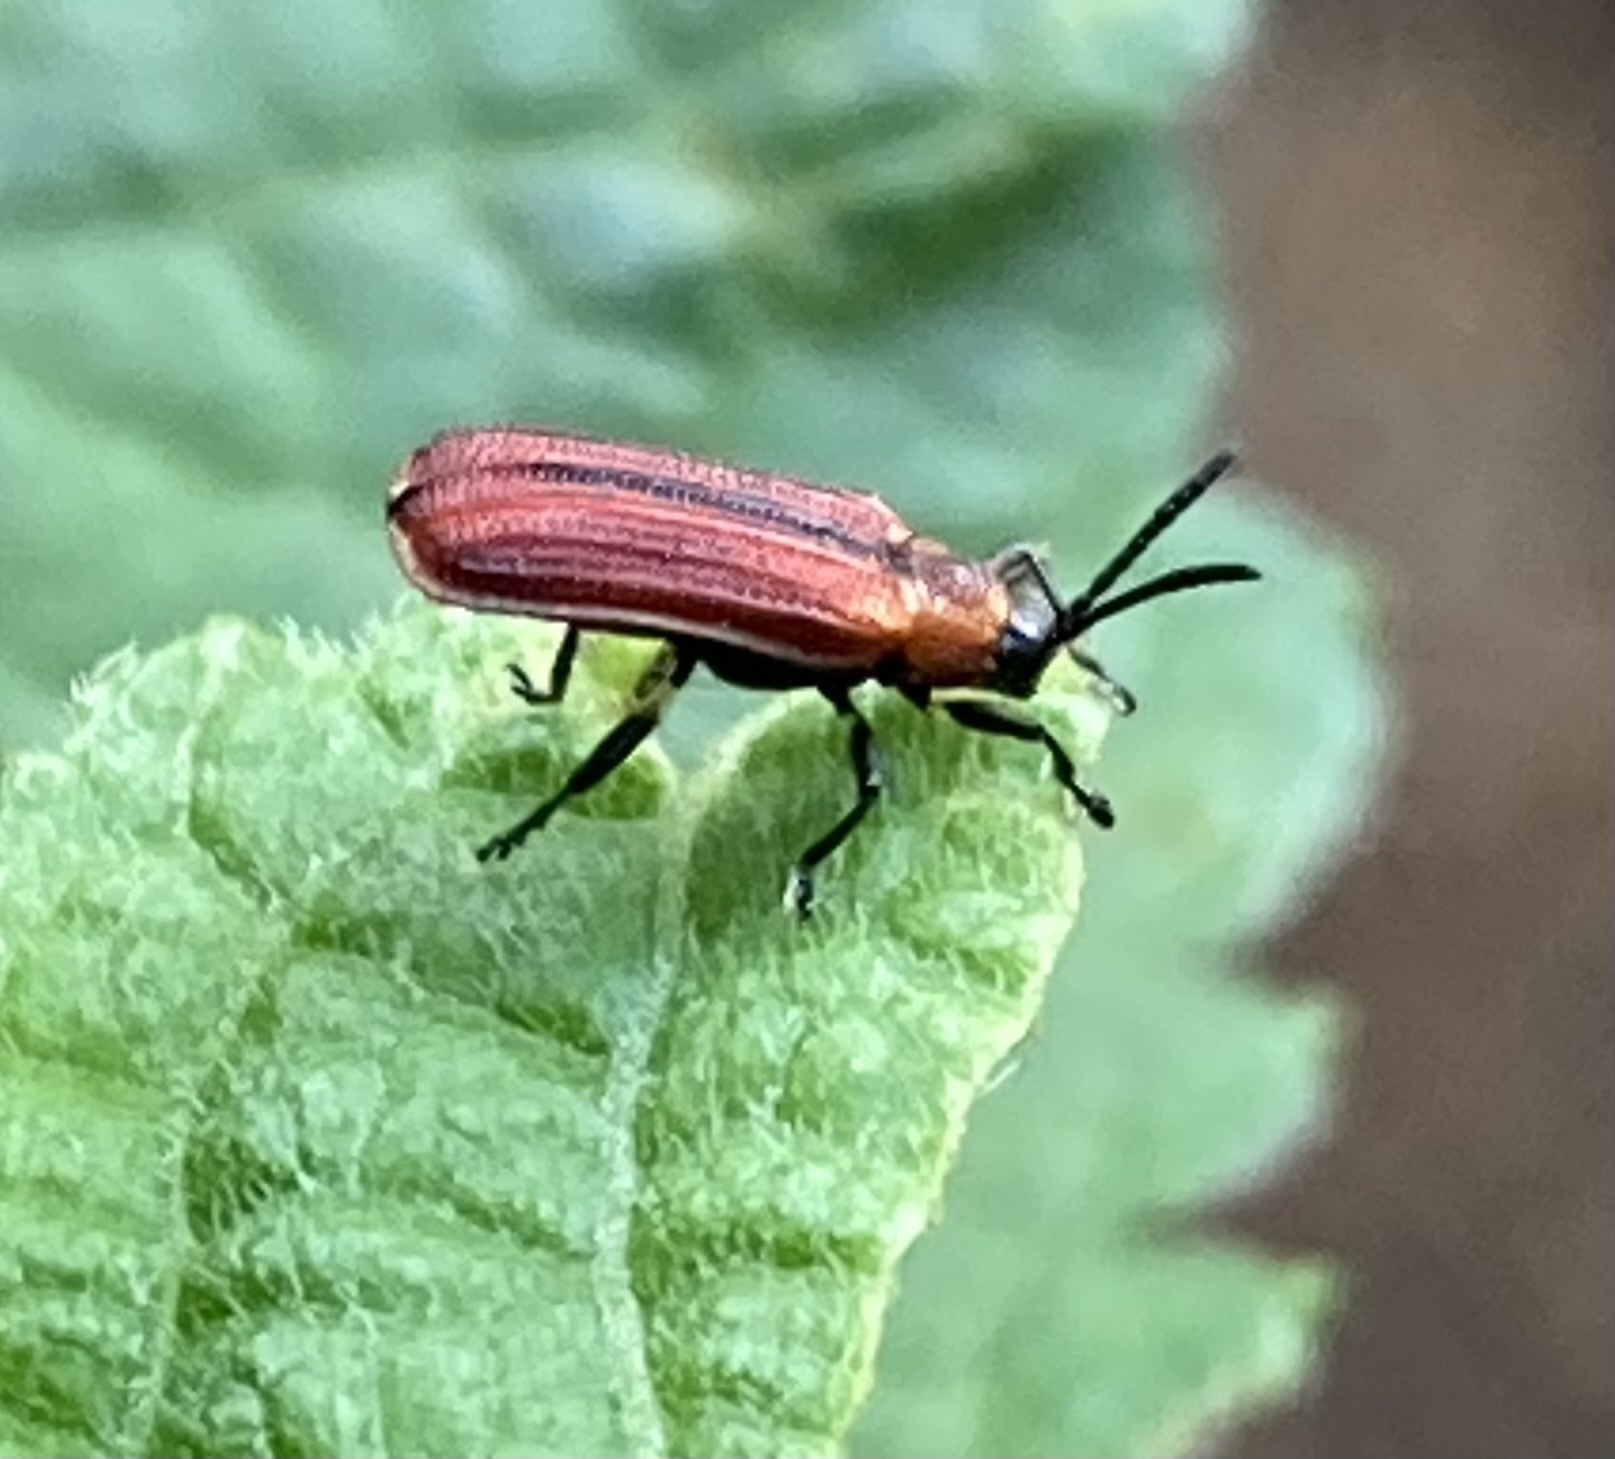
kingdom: Animalia
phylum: Arthropoda
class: Insecta
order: Coleoptera
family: Chrysomelidae
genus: Pentispa
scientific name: Pentispa suturalis
